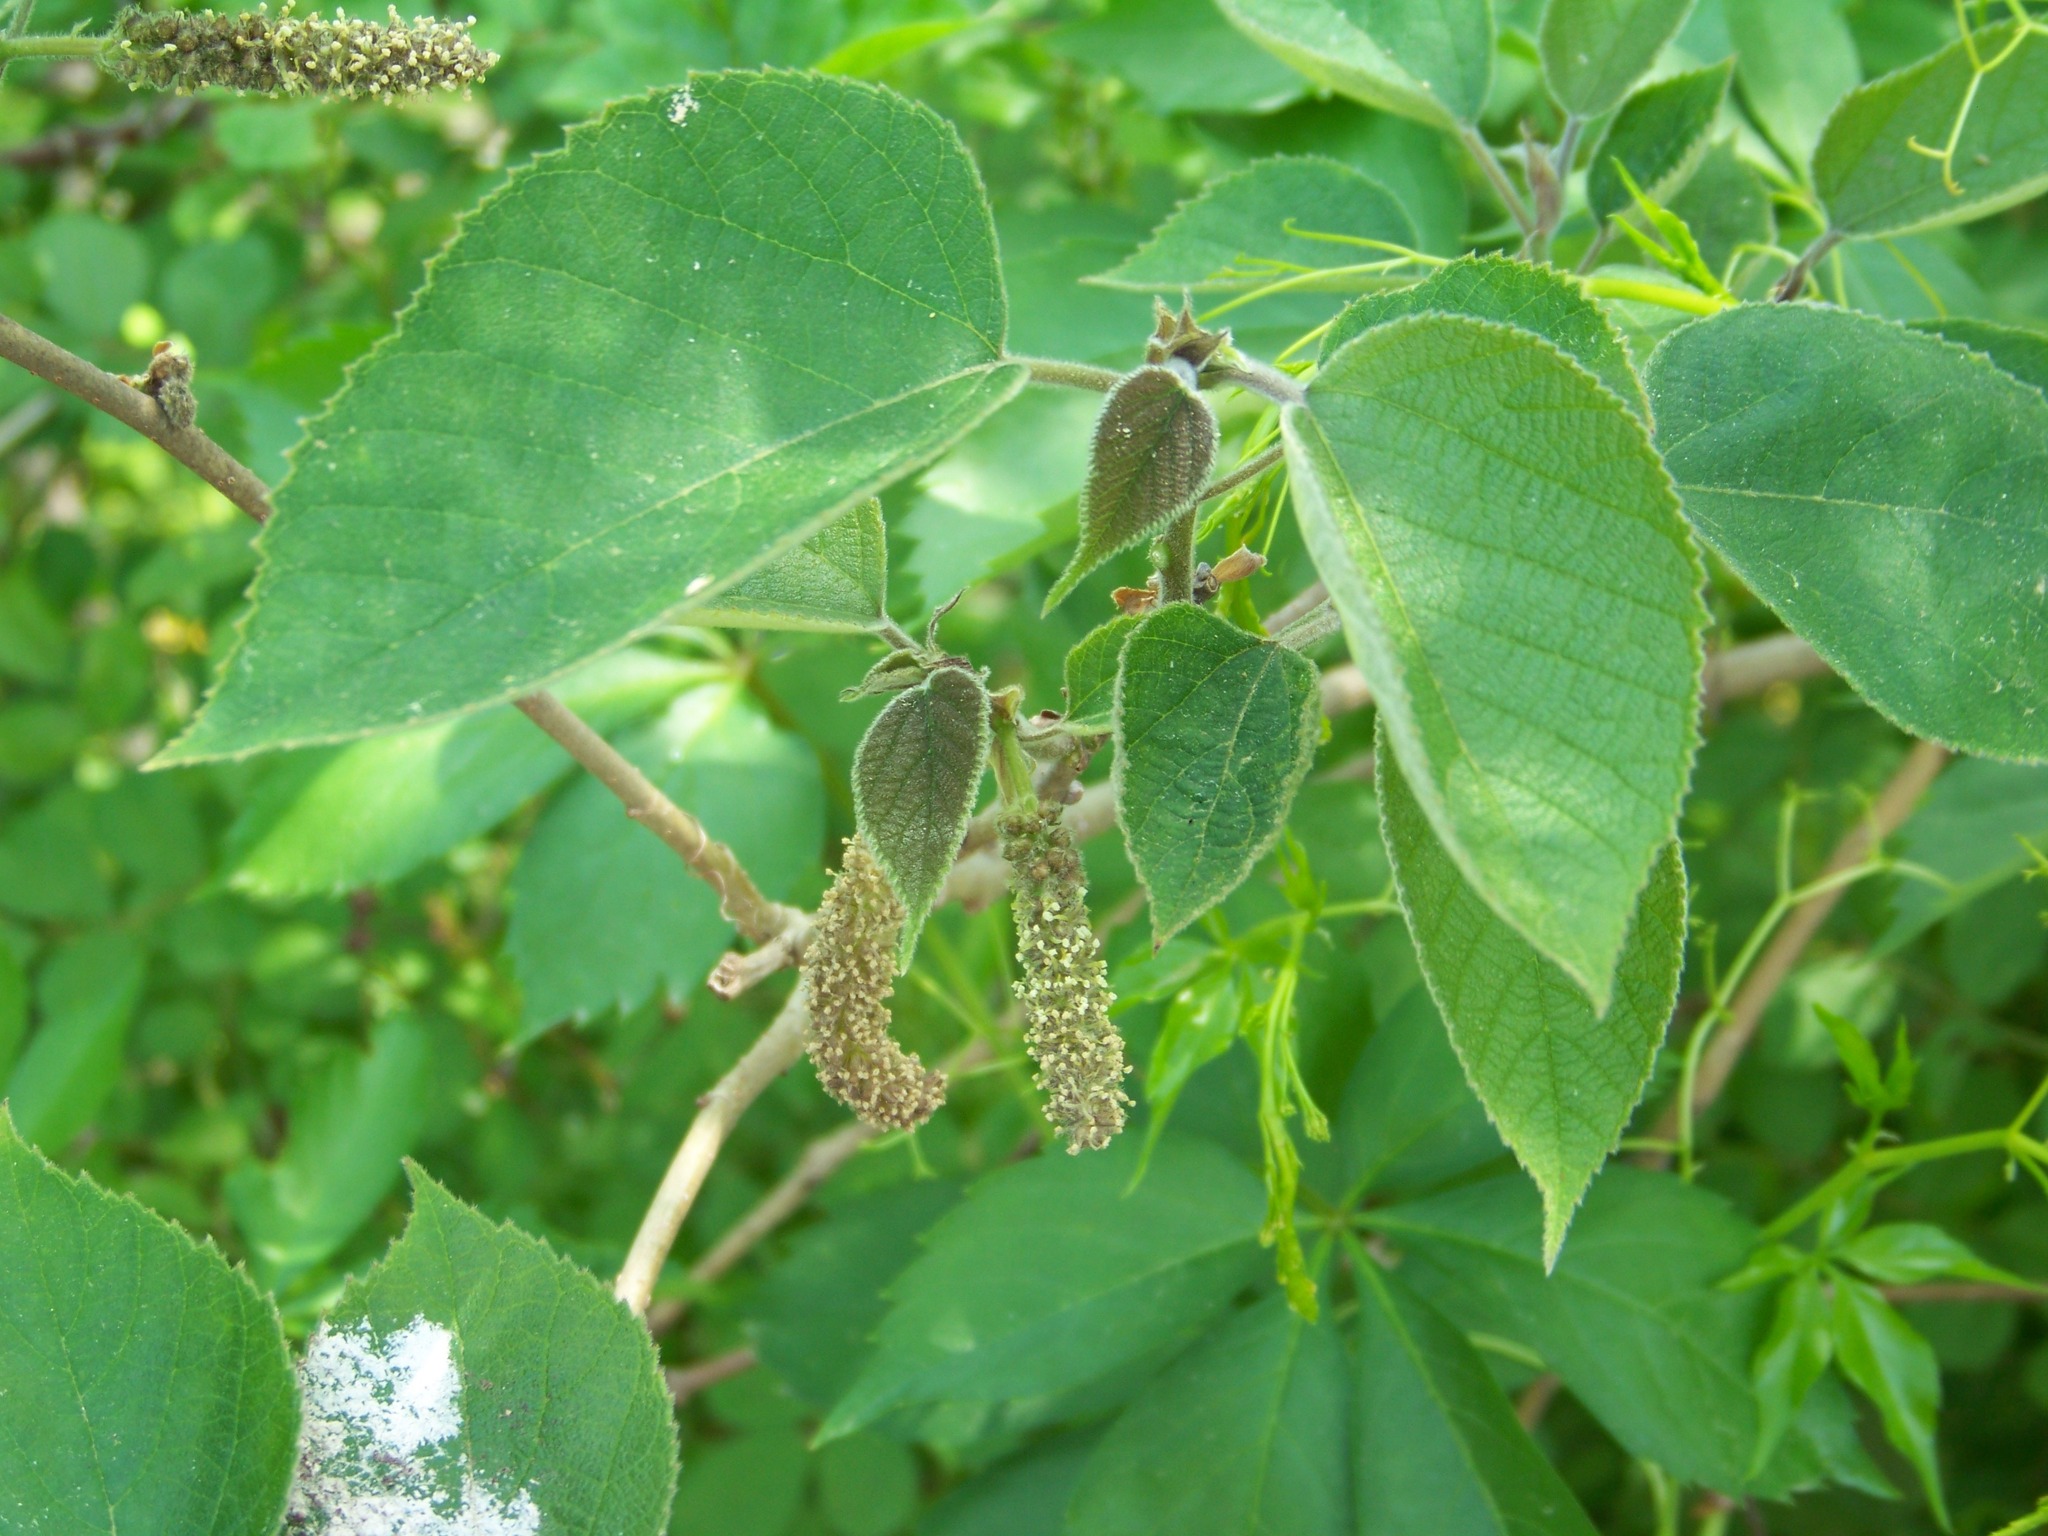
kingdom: Plantae
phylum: Tracheophyta
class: Magnoliopsida
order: Rosales
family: Moraceae
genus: Broussonetia
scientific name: Broussonetia papyrifera
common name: Paper mulberry
